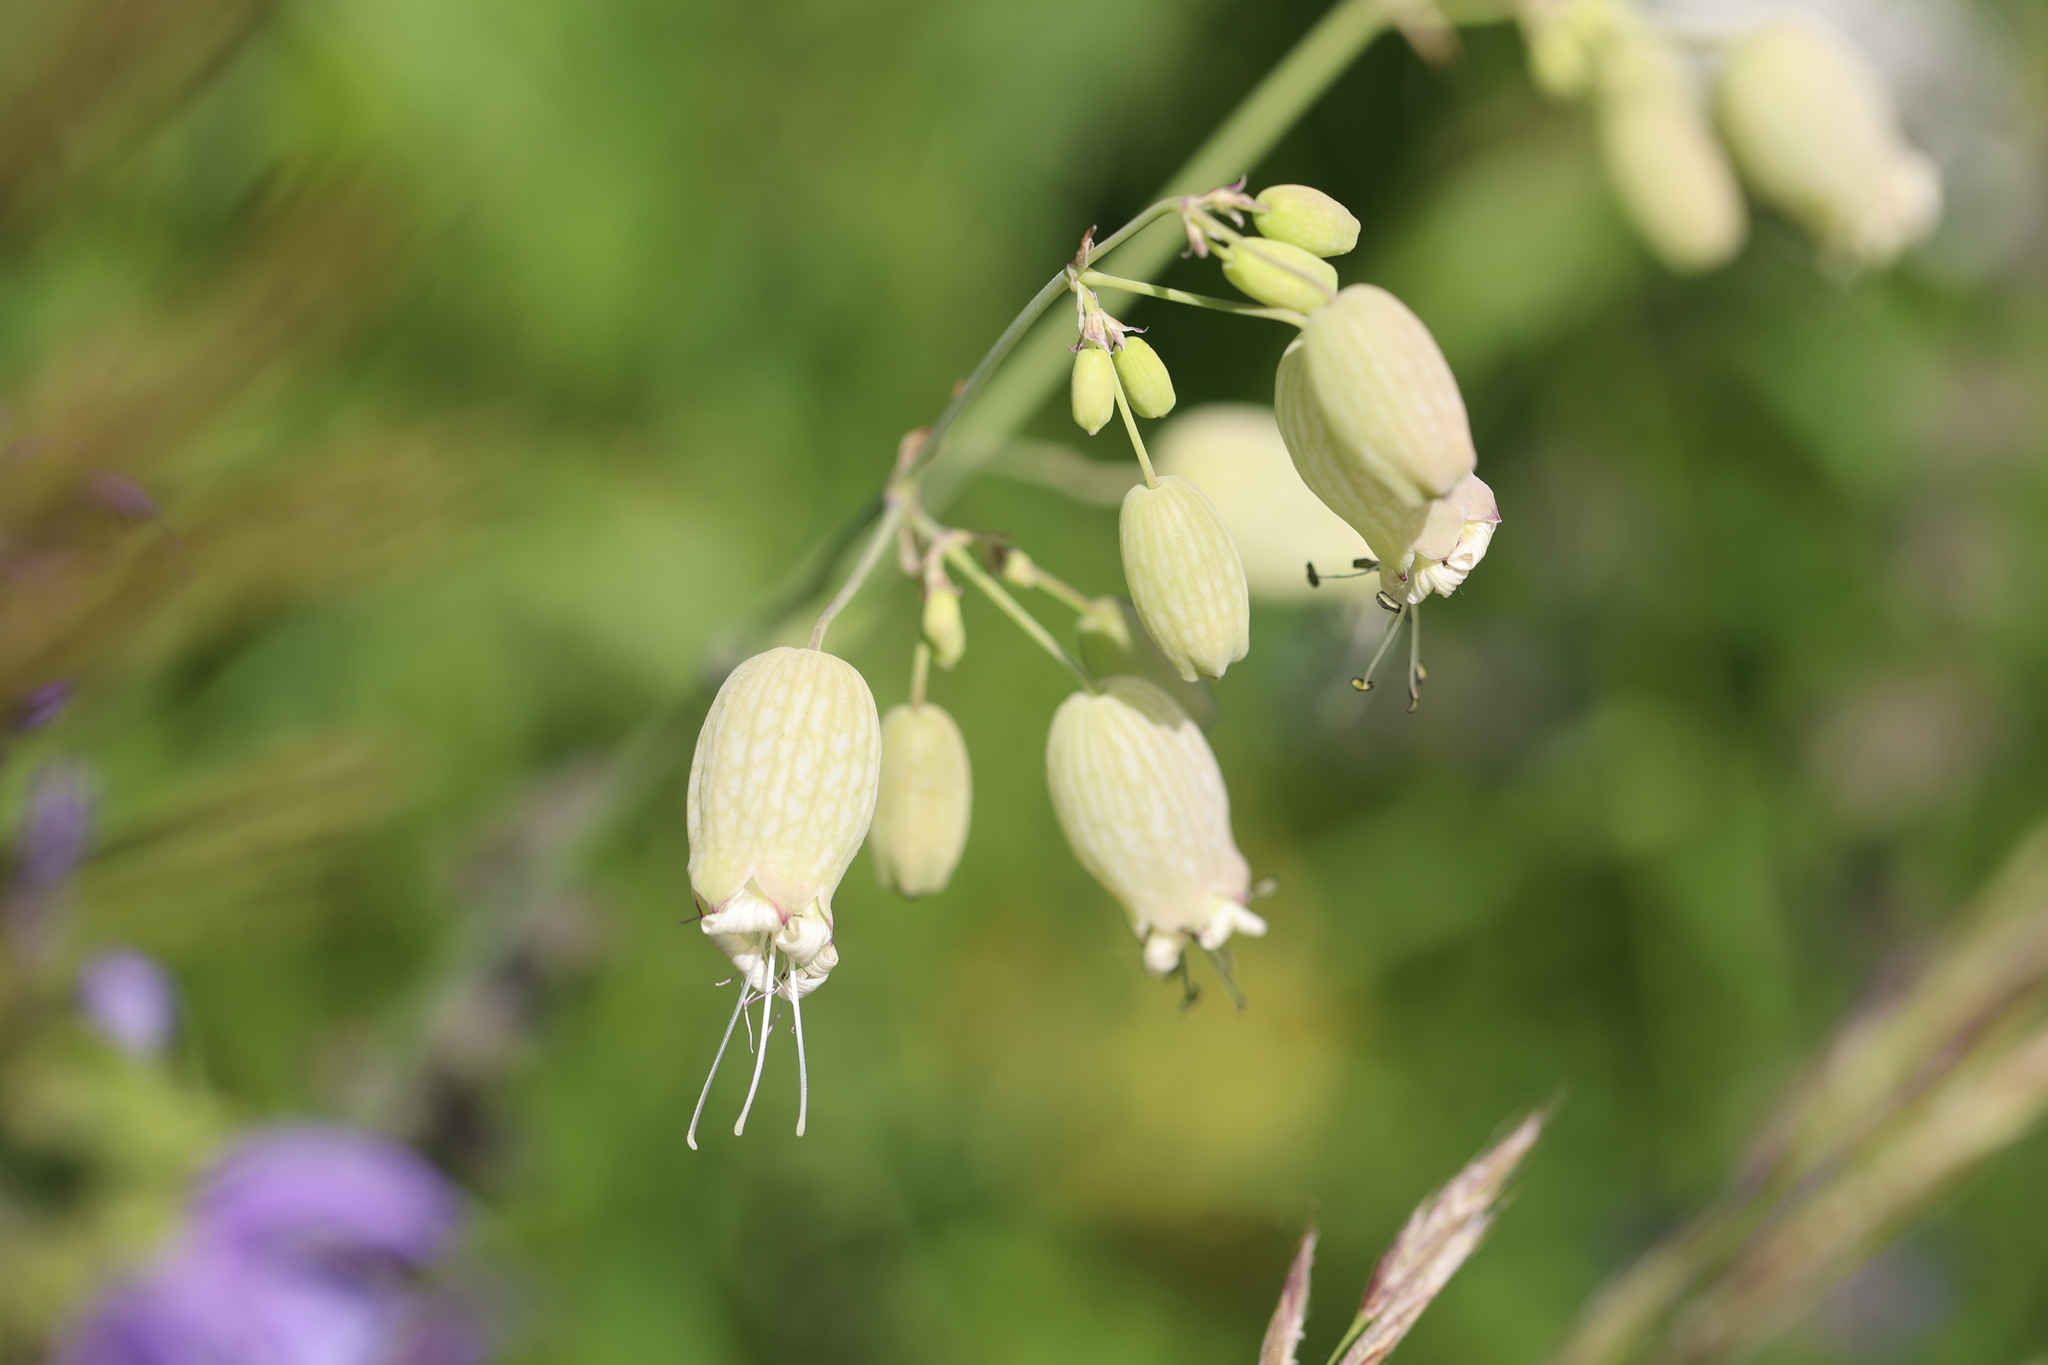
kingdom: Plantae
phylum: Tracheophyta
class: Magnoliopsida
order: Caryophyllales
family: Caryophyllaceae
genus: Silene
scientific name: Silene vulgaris
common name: Bladder campion
